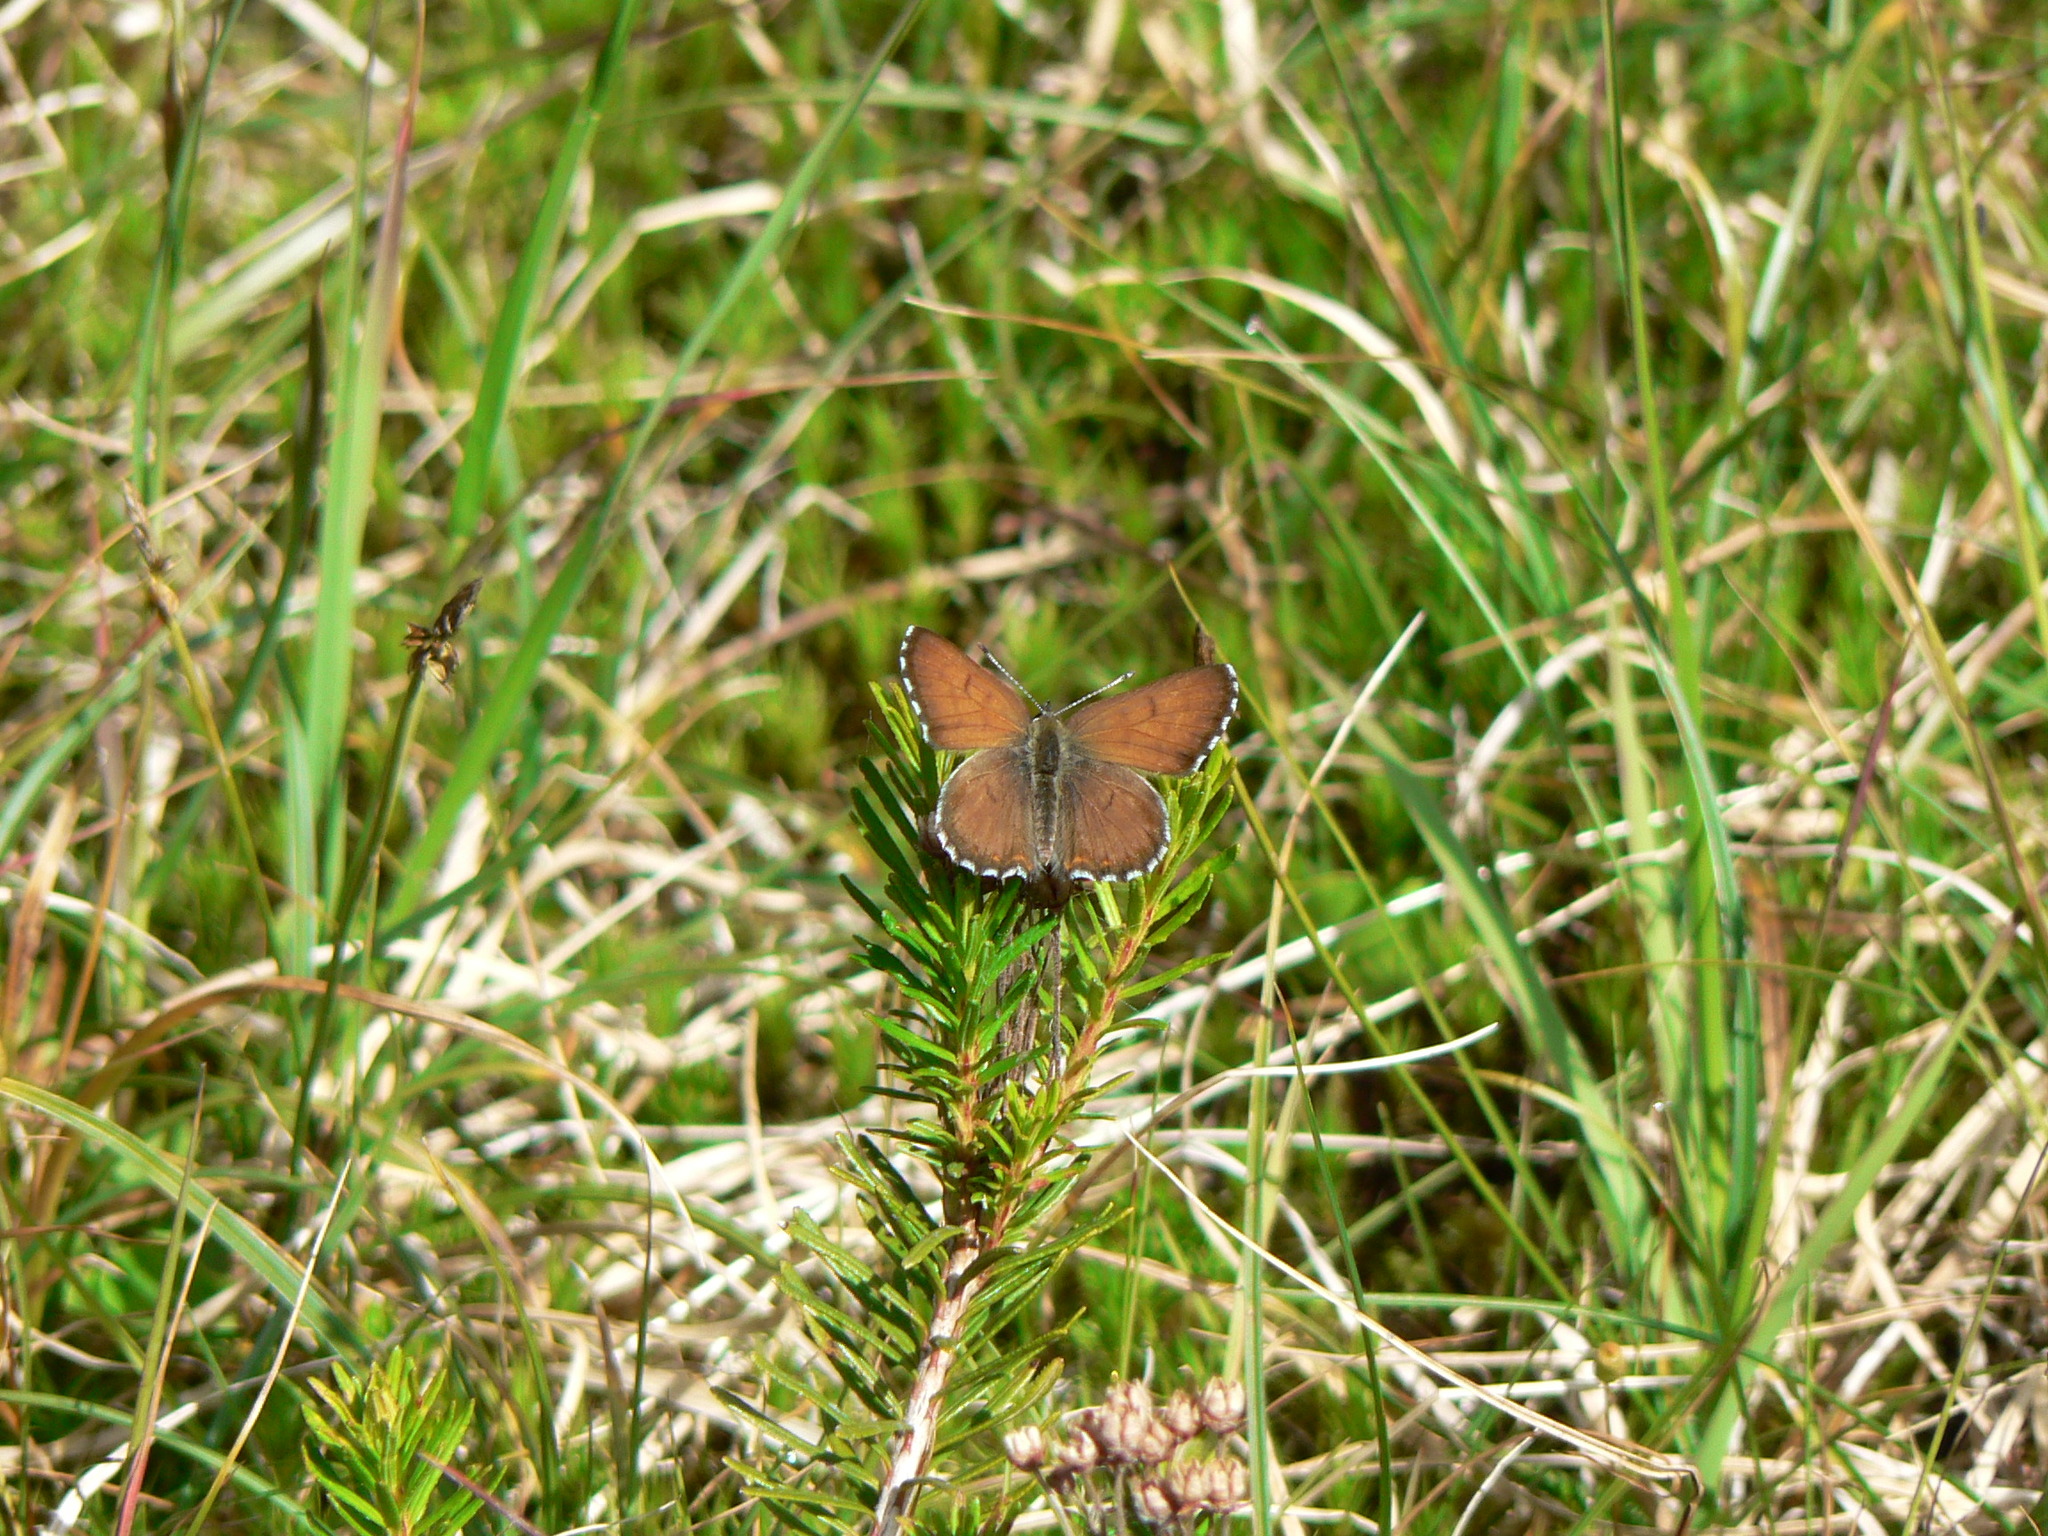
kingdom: Animalia
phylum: Arthropoda
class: Insecta
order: Lepidoptera
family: Lycaenidae
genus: Tharsalea
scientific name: Tharsalea mariposa
